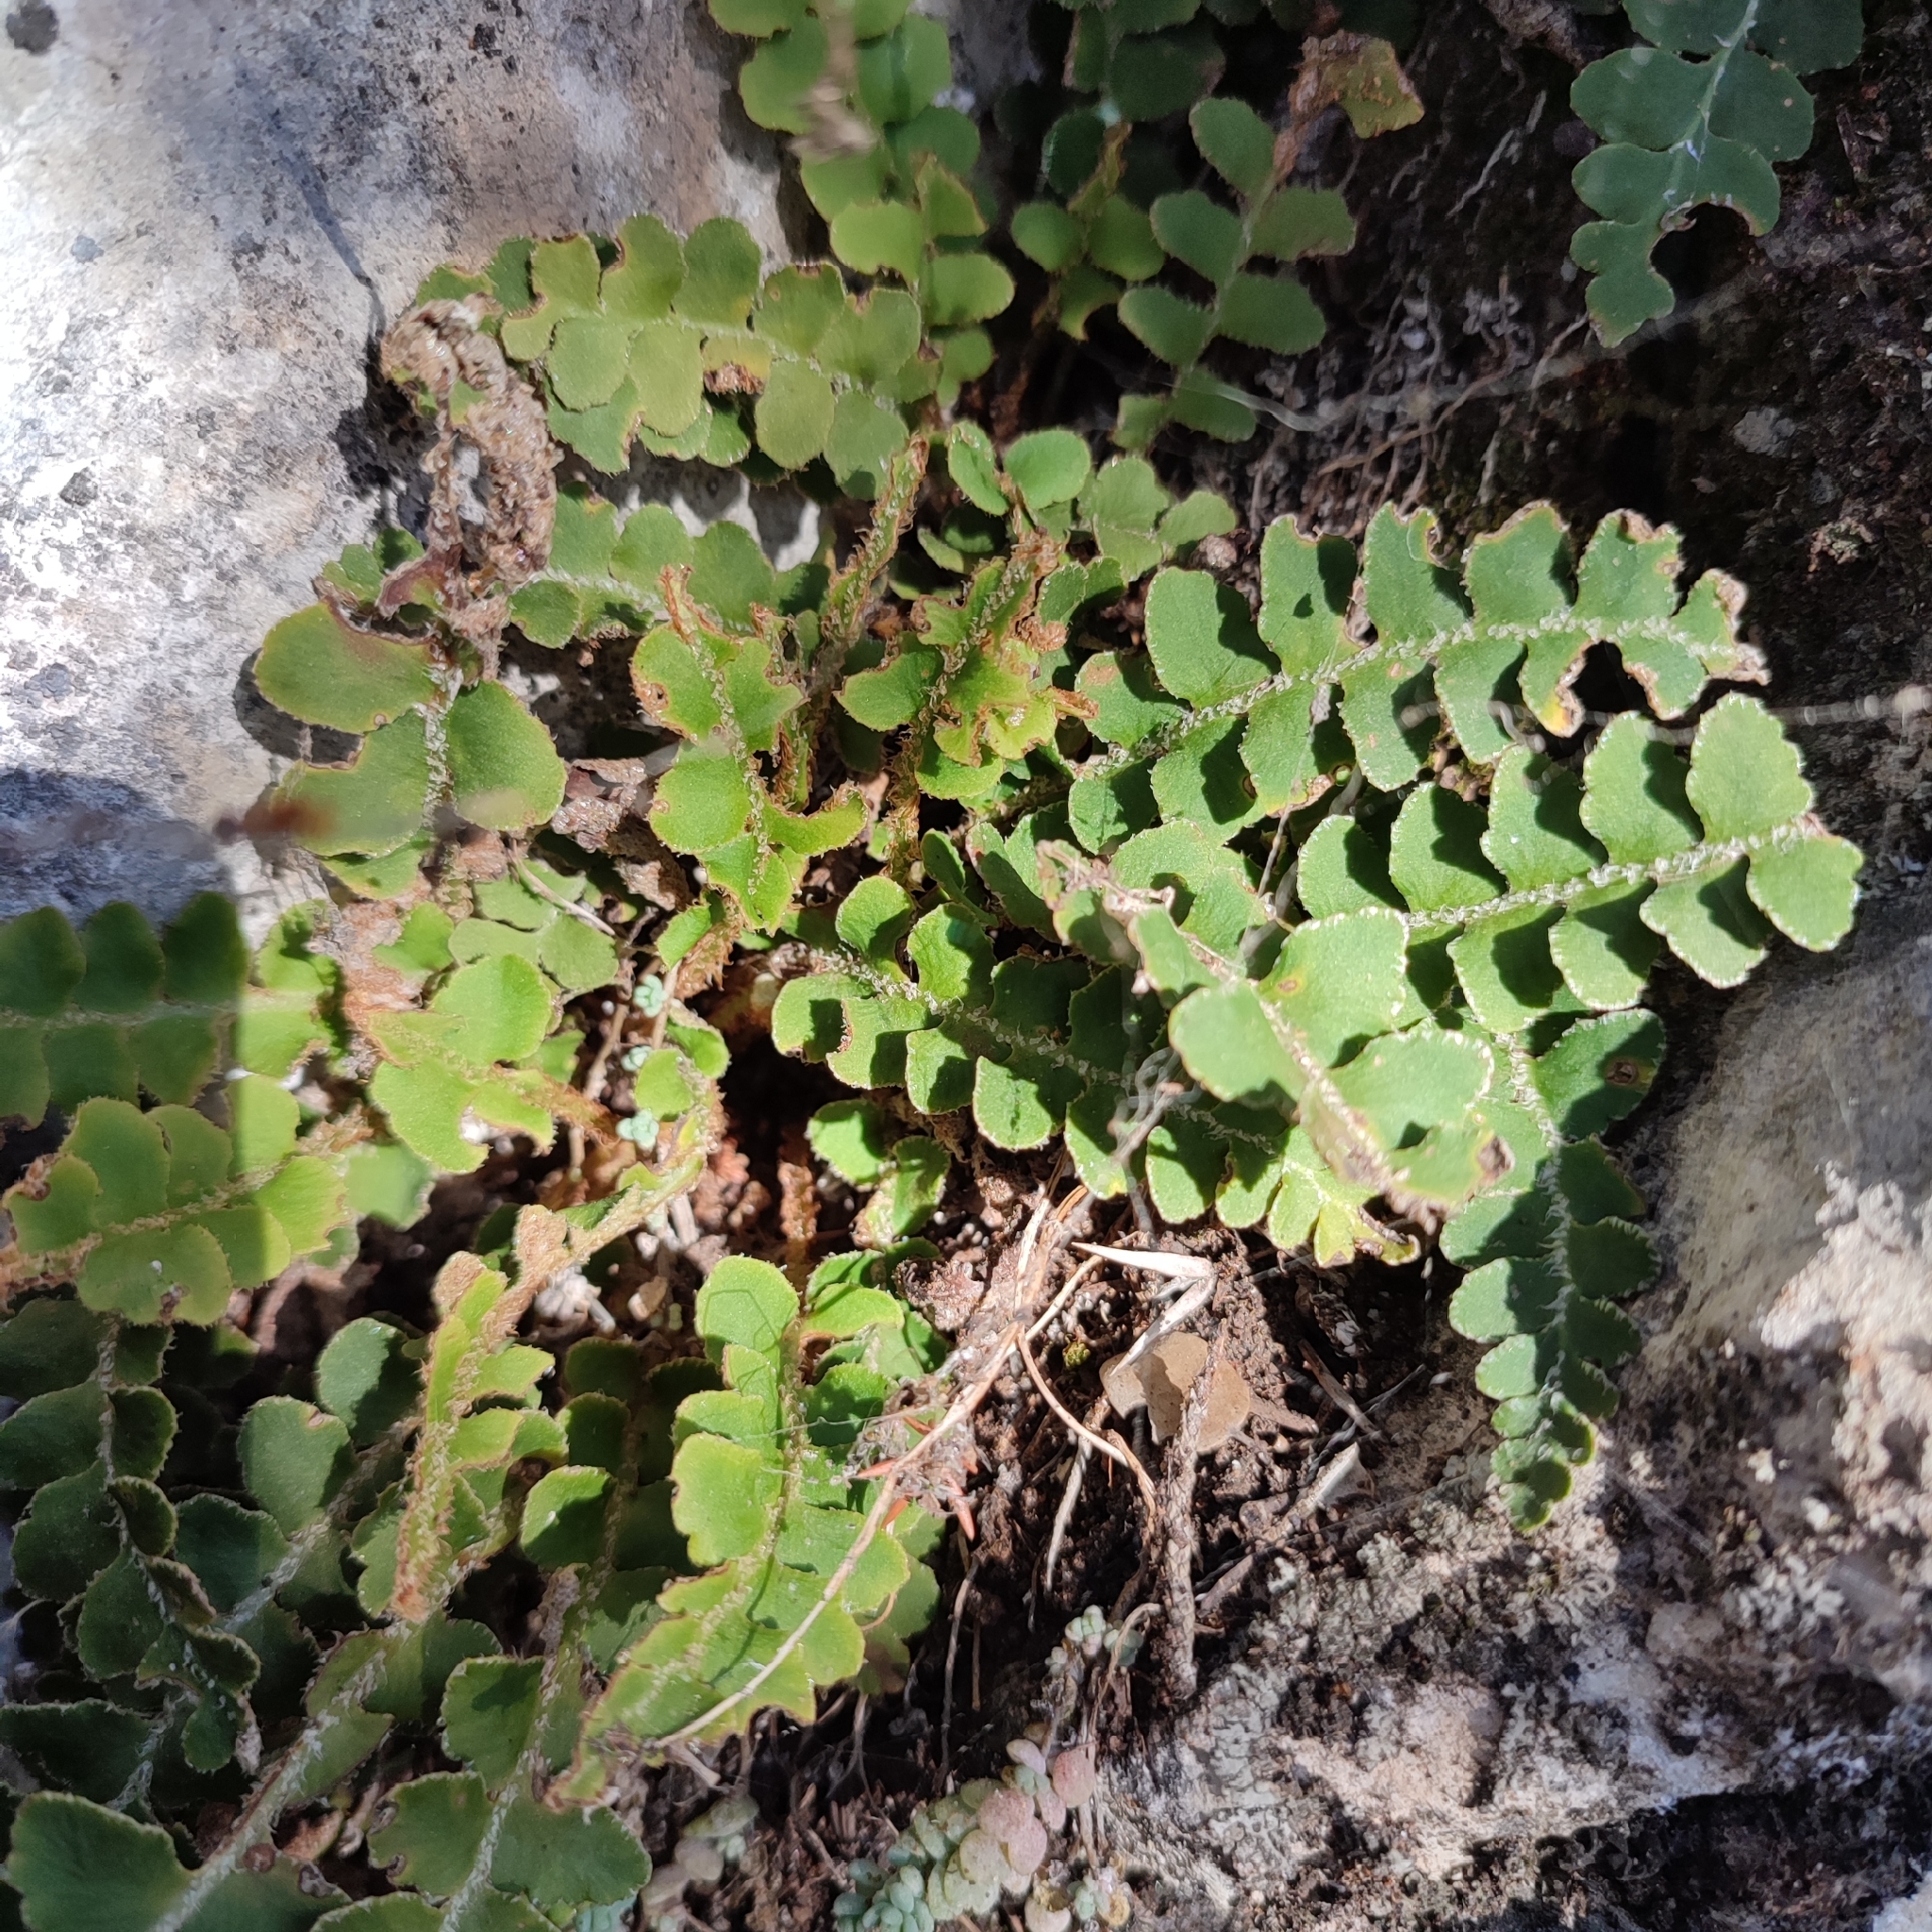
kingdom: Plantae
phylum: Tracheophyta
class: Polypodiopsida
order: Polypodiales
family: Aspleniaceae
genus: Asplenium
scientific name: Asplenium ceterach
